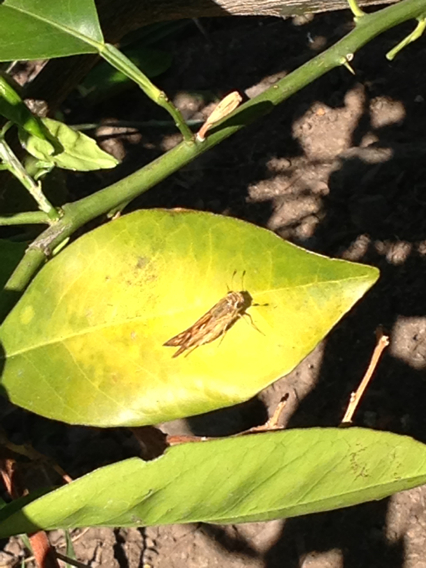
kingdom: Animalia
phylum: Arthropoda
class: Insecta
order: Lepidoptera
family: Hesperiidae
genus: Hylephila
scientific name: Hylephila phyleus
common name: Fiery skipper
